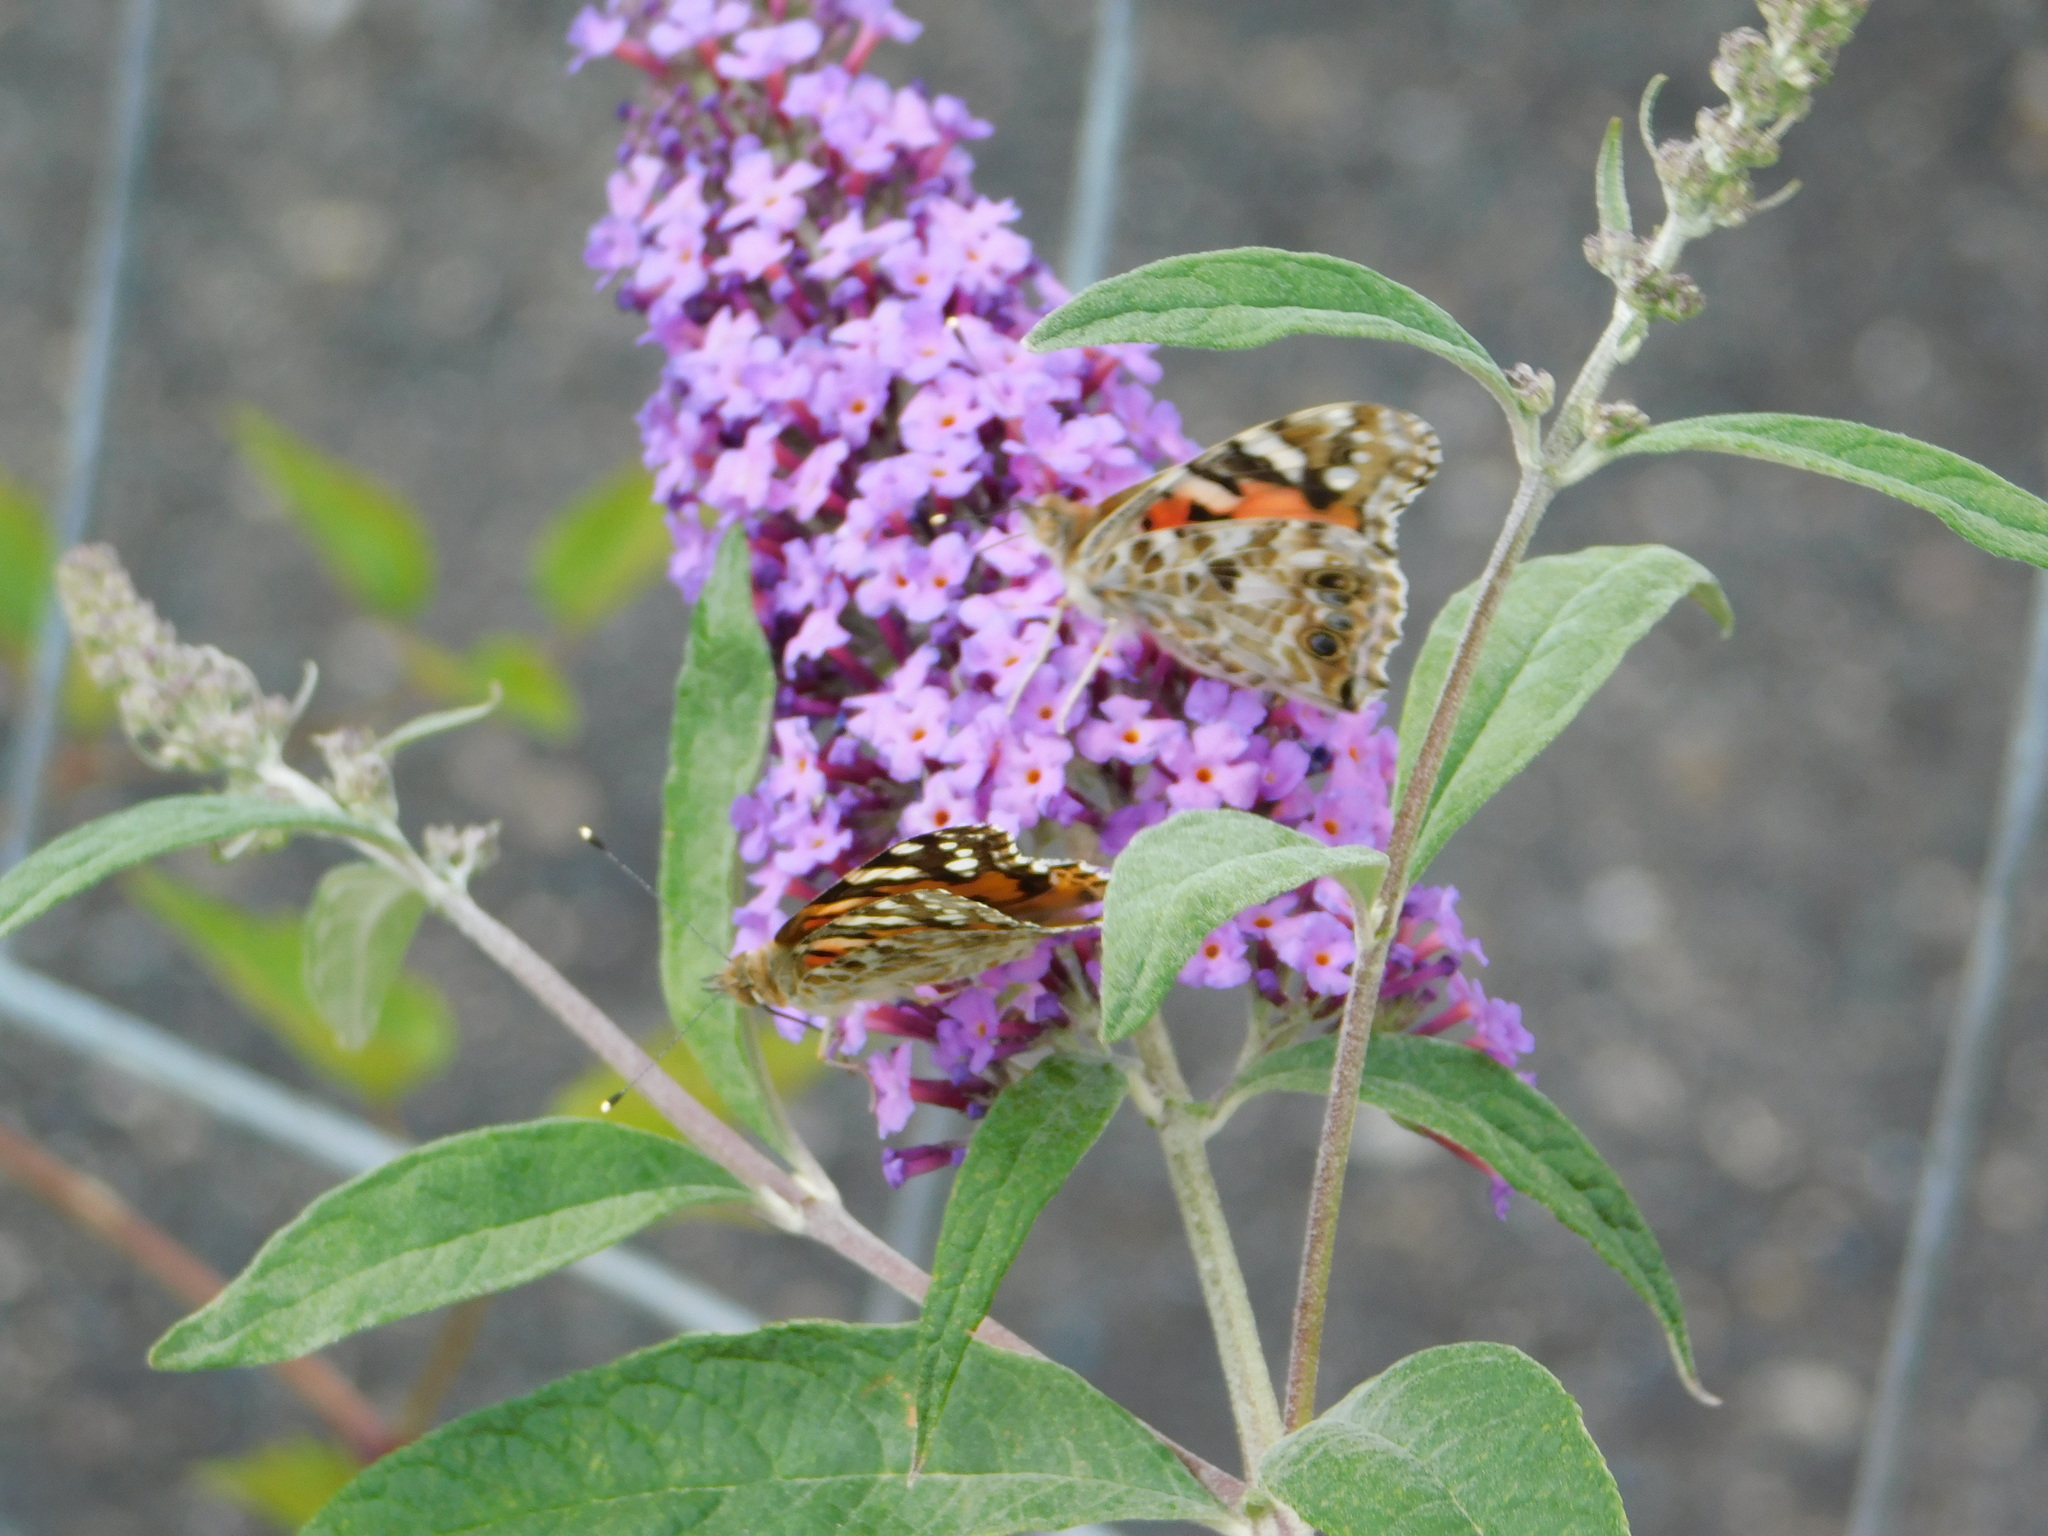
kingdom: Animalia
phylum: Arthropoda
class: Insecta
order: Lepidoptera
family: Nymphalidae
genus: Vanessa
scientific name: Vanessa cardui
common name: Painted lady
